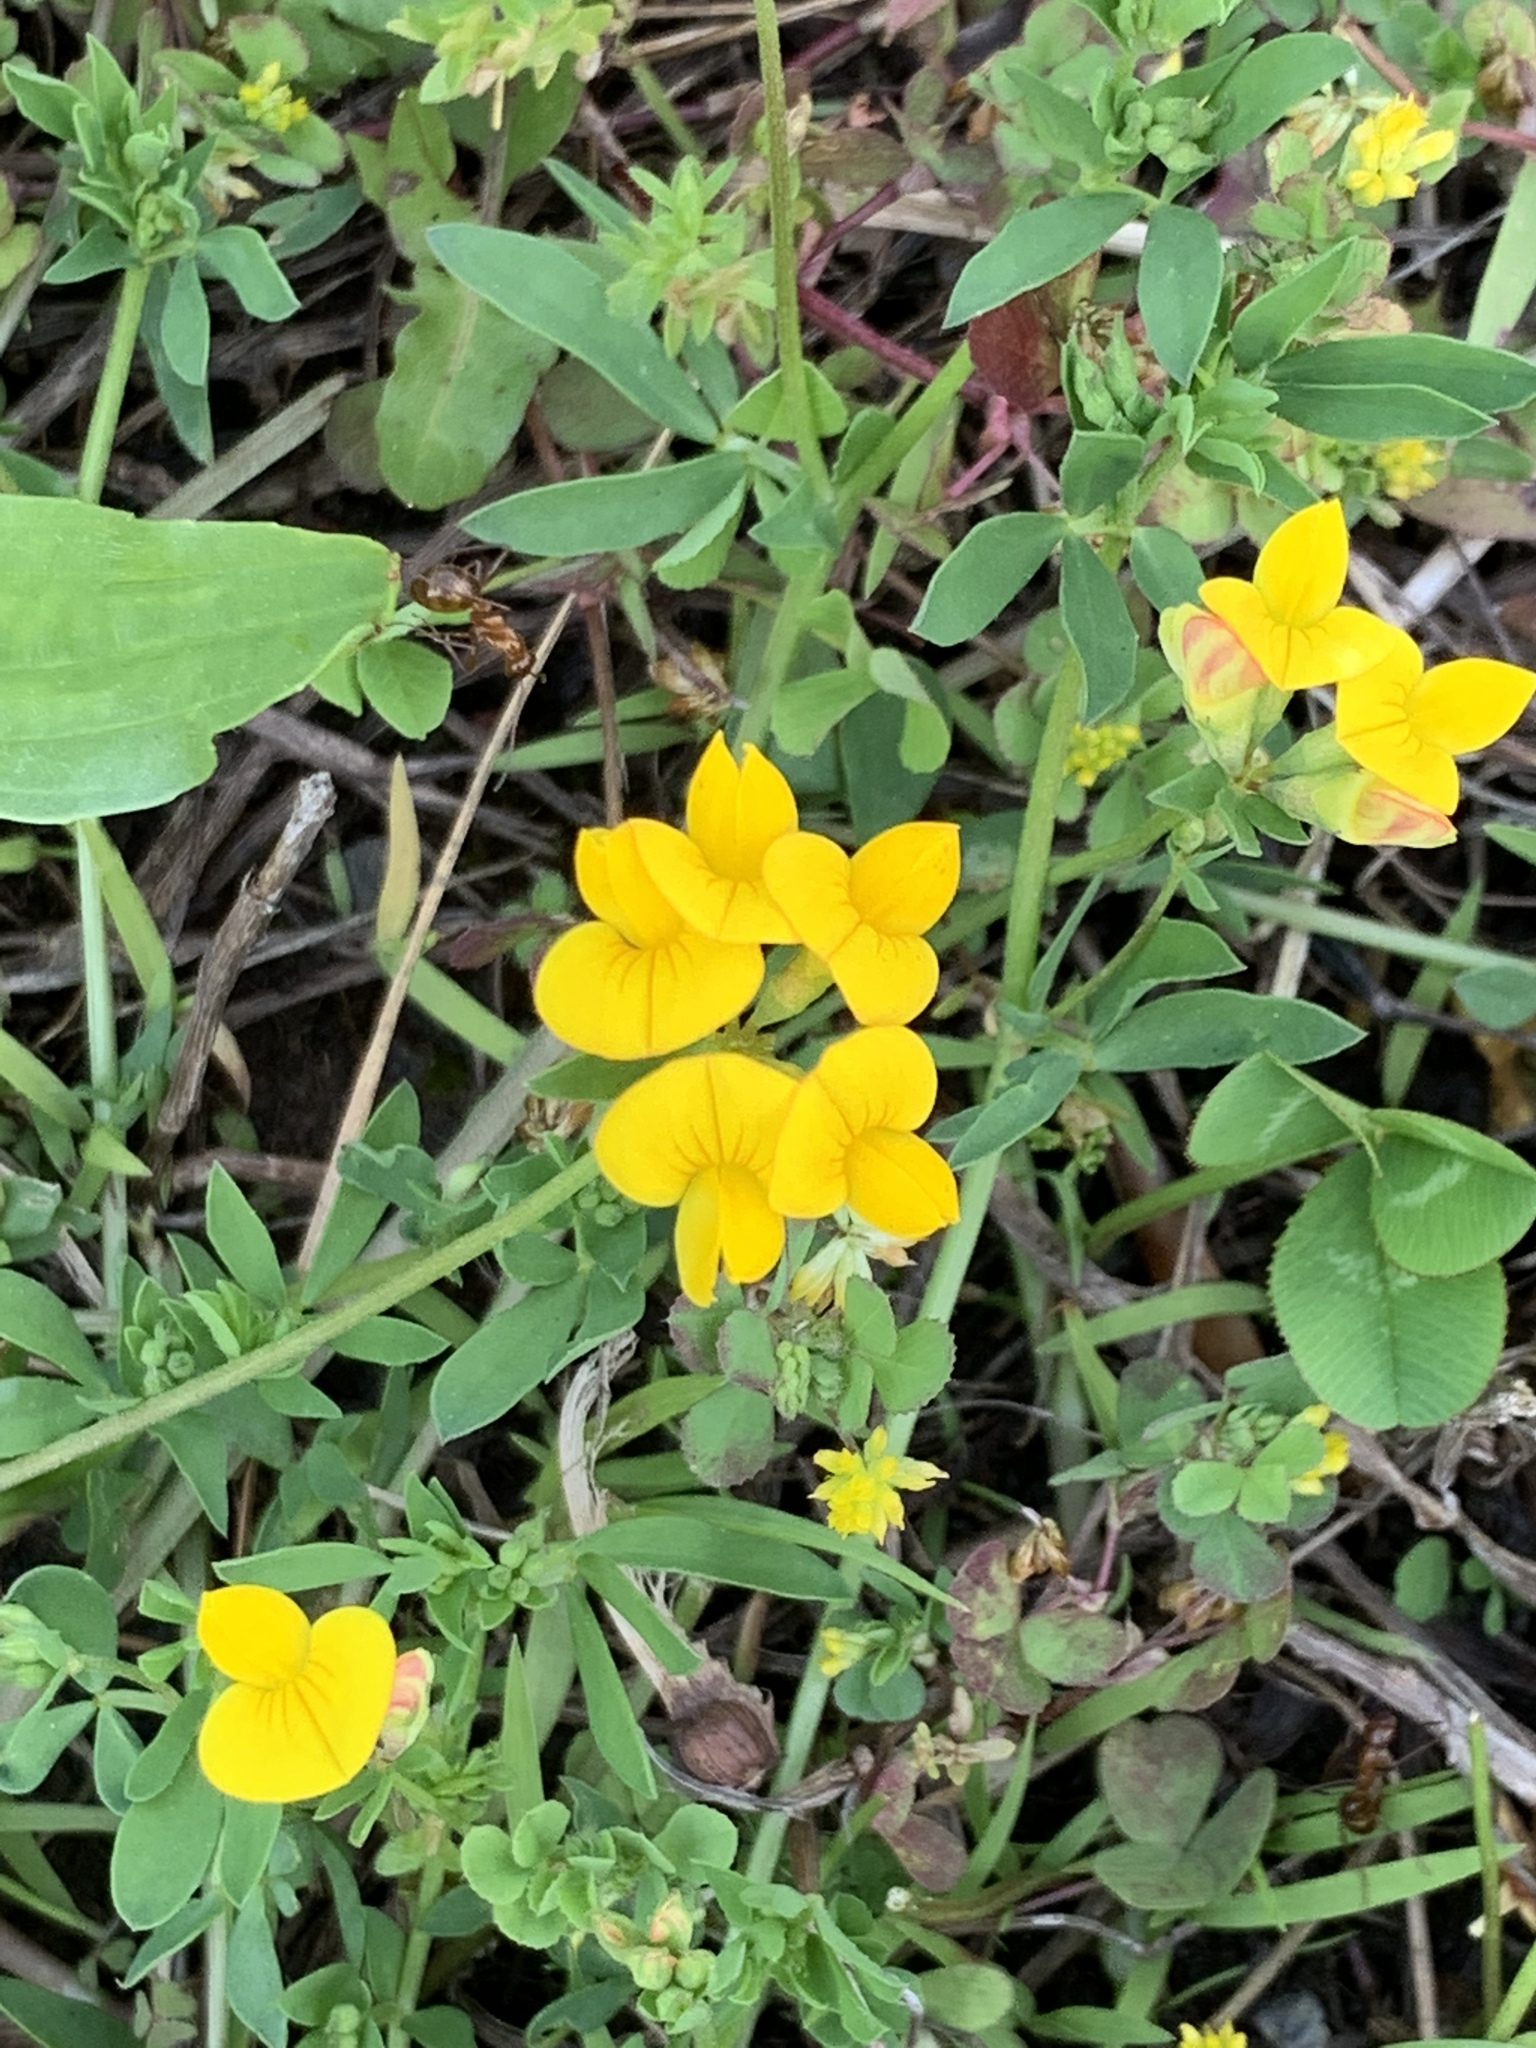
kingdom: Plantae
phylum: Tracheophyta
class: Magnoliopsida
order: Fabales
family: Fabaceae
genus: Lotus
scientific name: Lotus corniculatus
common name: Common bird's-foot-trefoil
